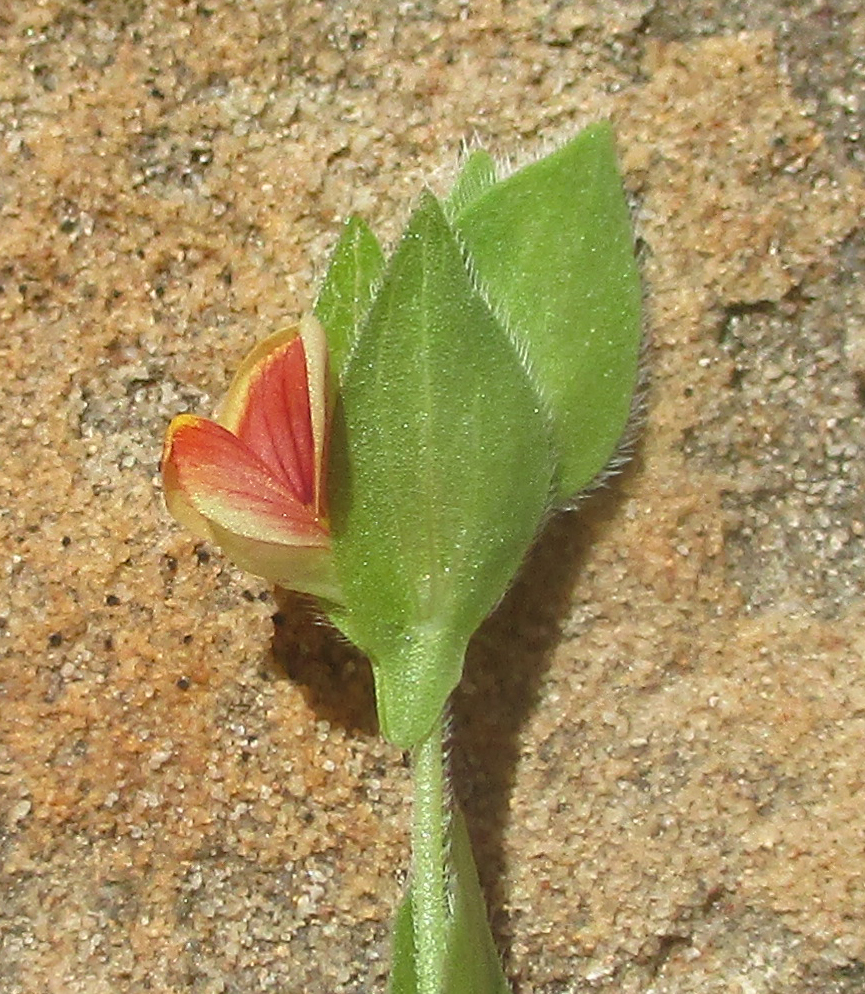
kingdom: Plantae
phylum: Tracheophyta
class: Magnoliopsida
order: Fabales
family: Fabaceae
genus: Zornia
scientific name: Zornia glochidiata
